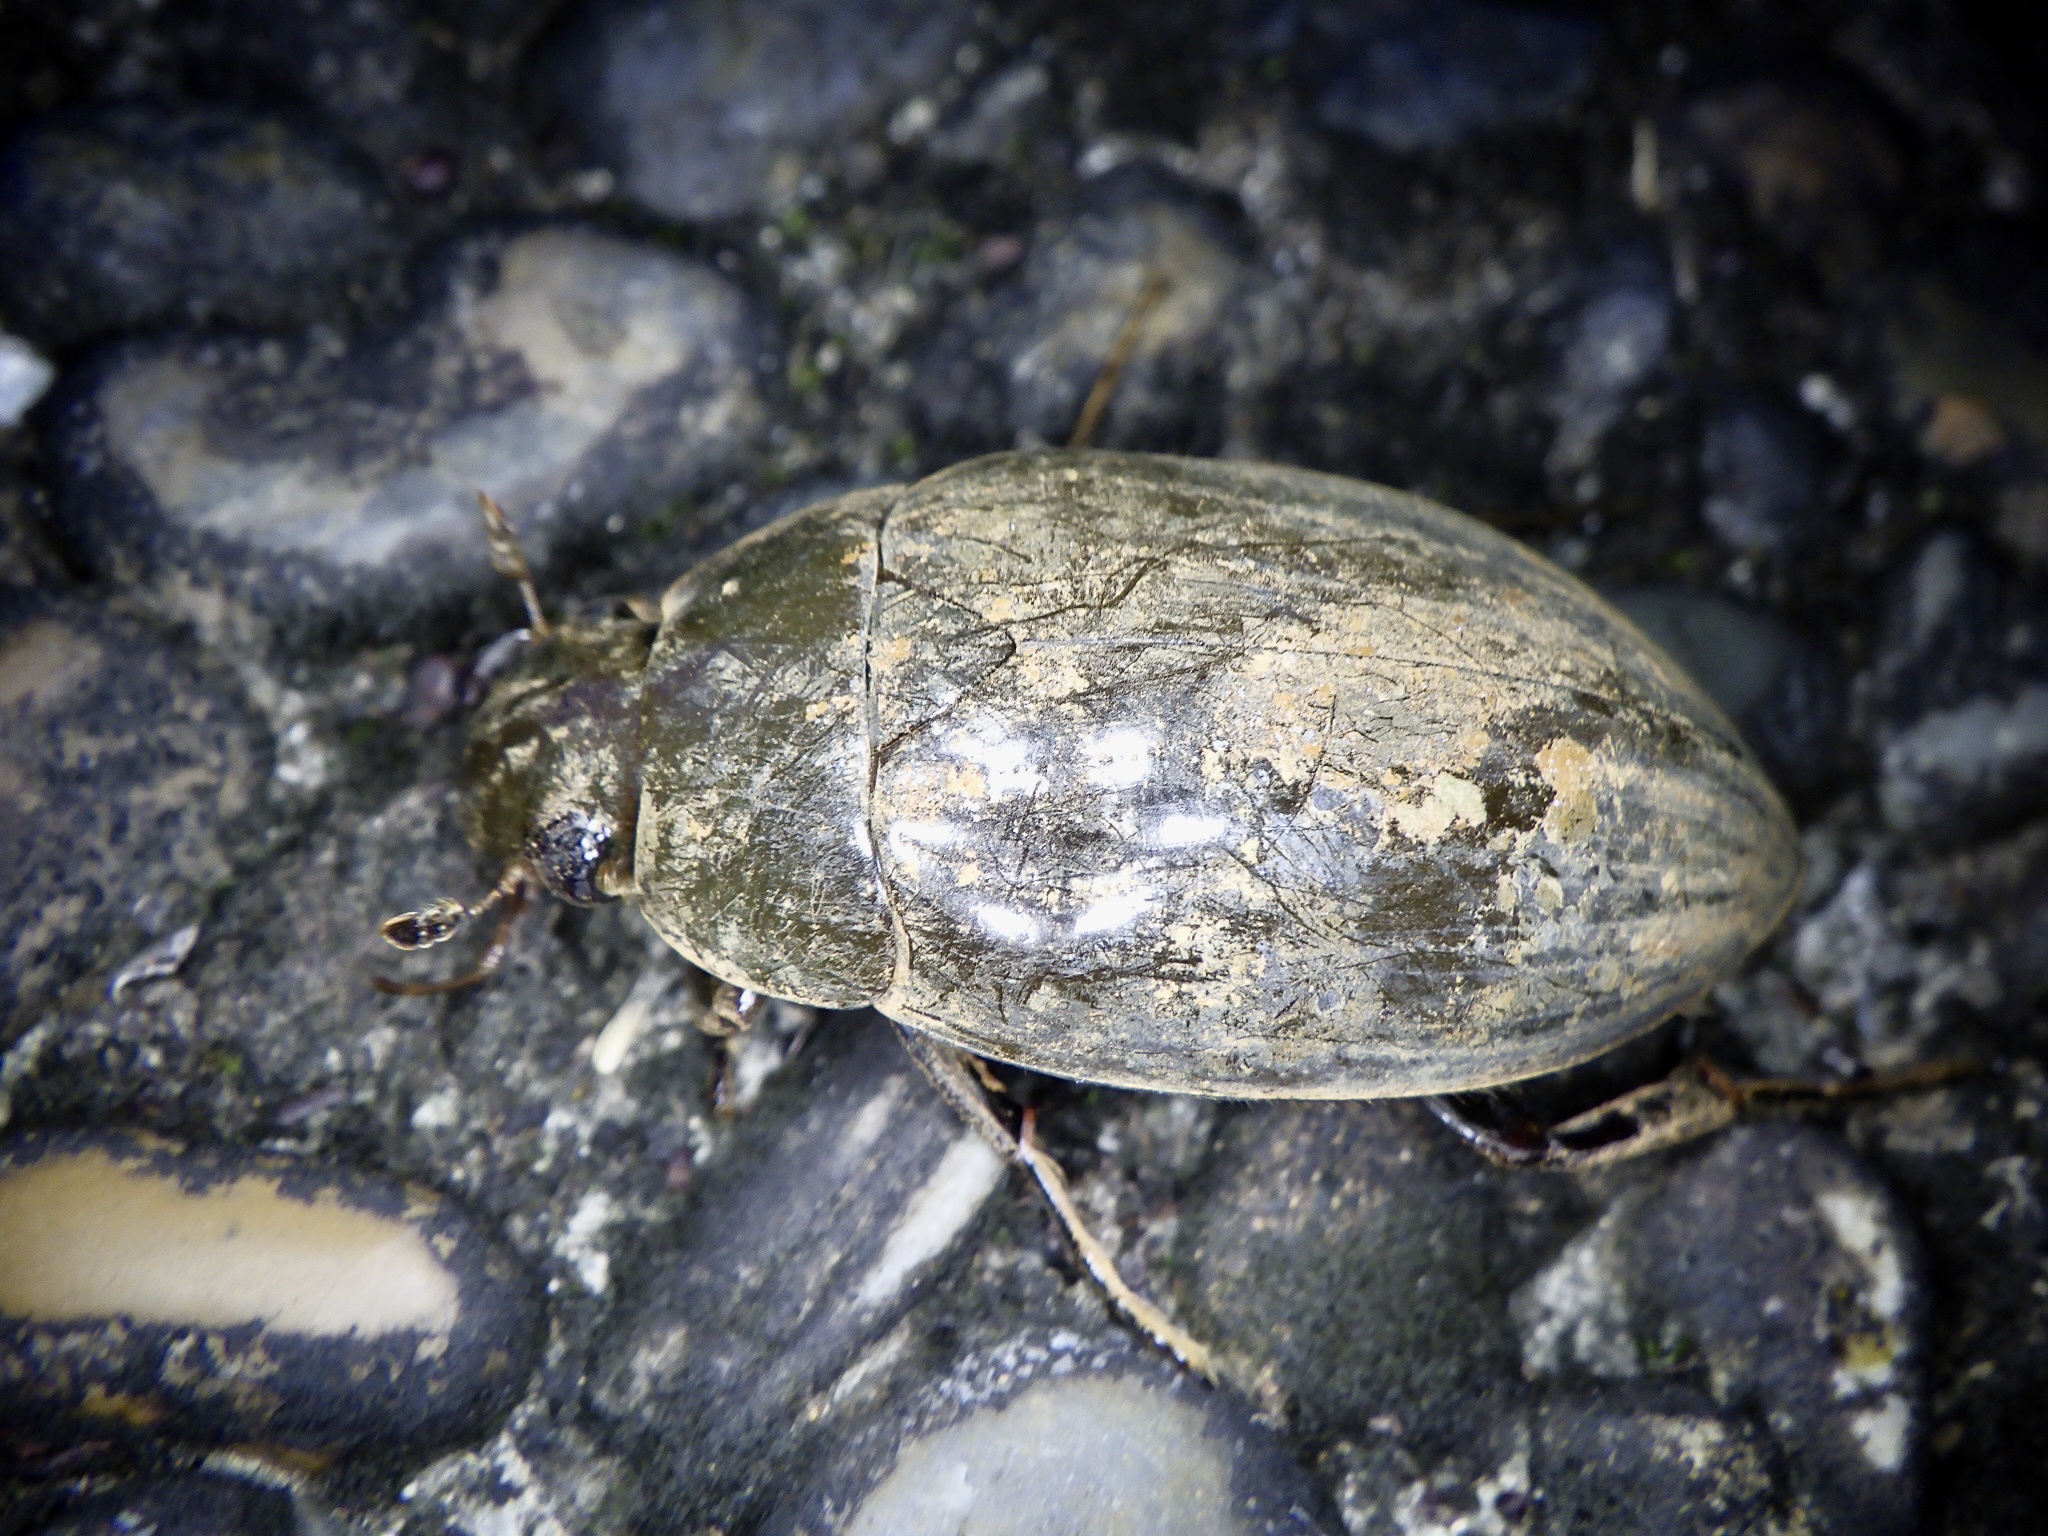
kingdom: Animalia
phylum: Arthropoda
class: Insecta
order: Coleoptera
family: Hydrophilidae
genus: Hydrophilus
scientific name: Hydrophilus acuminatus
